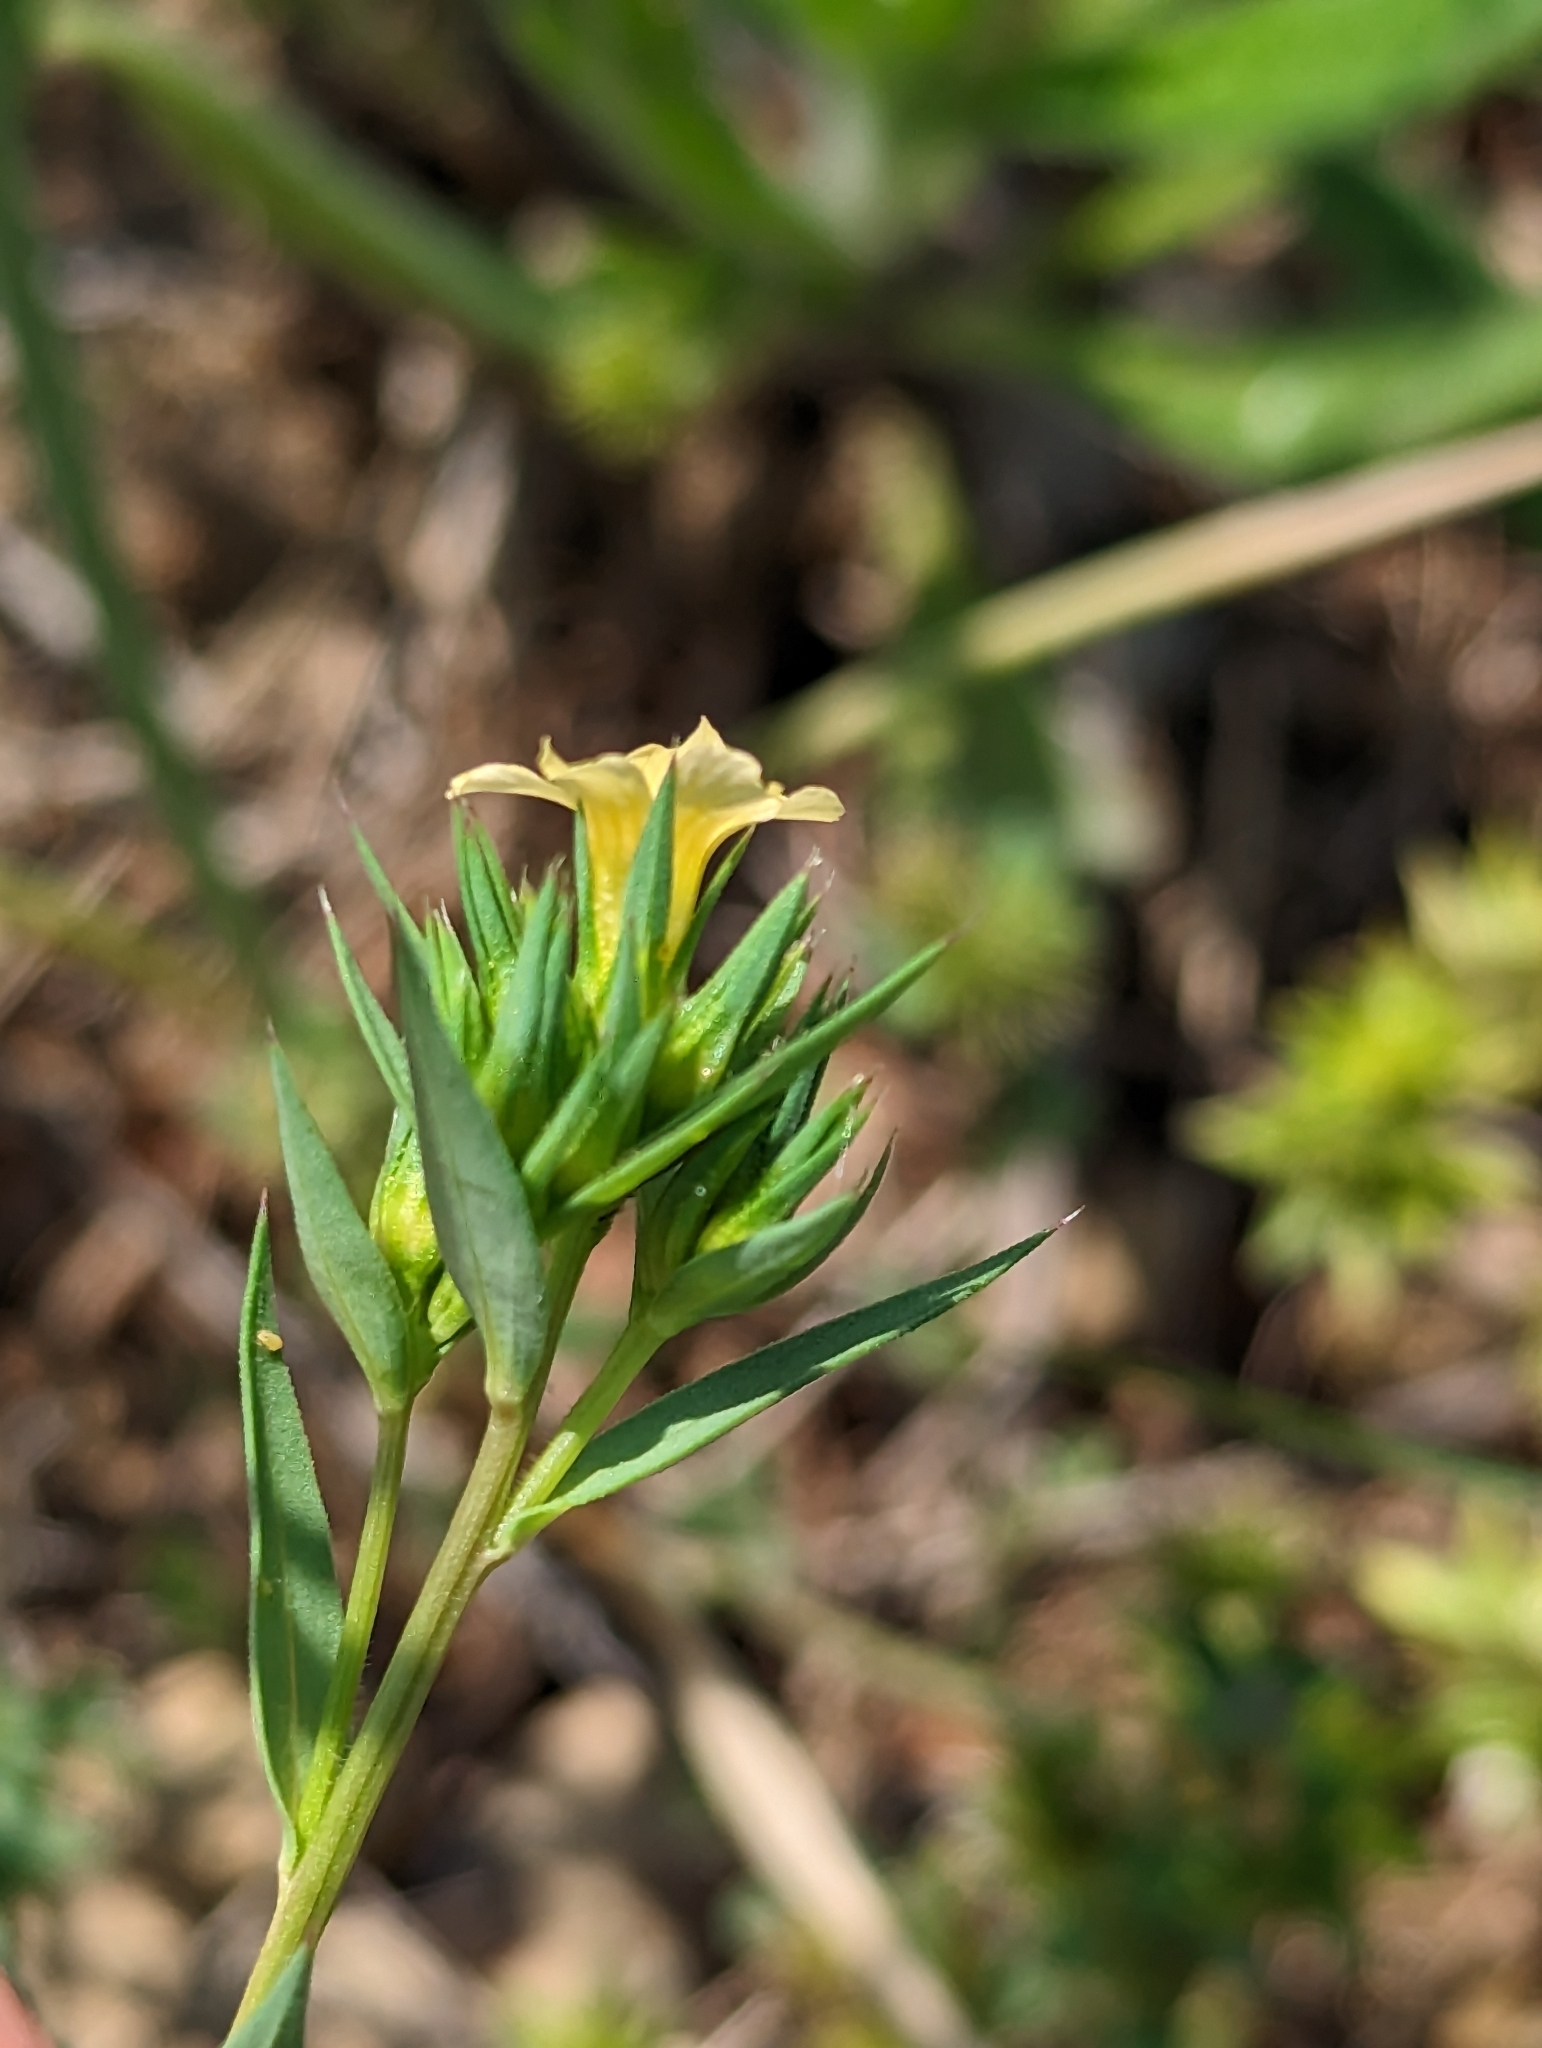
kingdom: Plantae
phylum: Tracheophyta
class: Magnoliopsida
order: Malpighiales
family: Linaceae
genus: Linum
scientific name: Linum strictum
